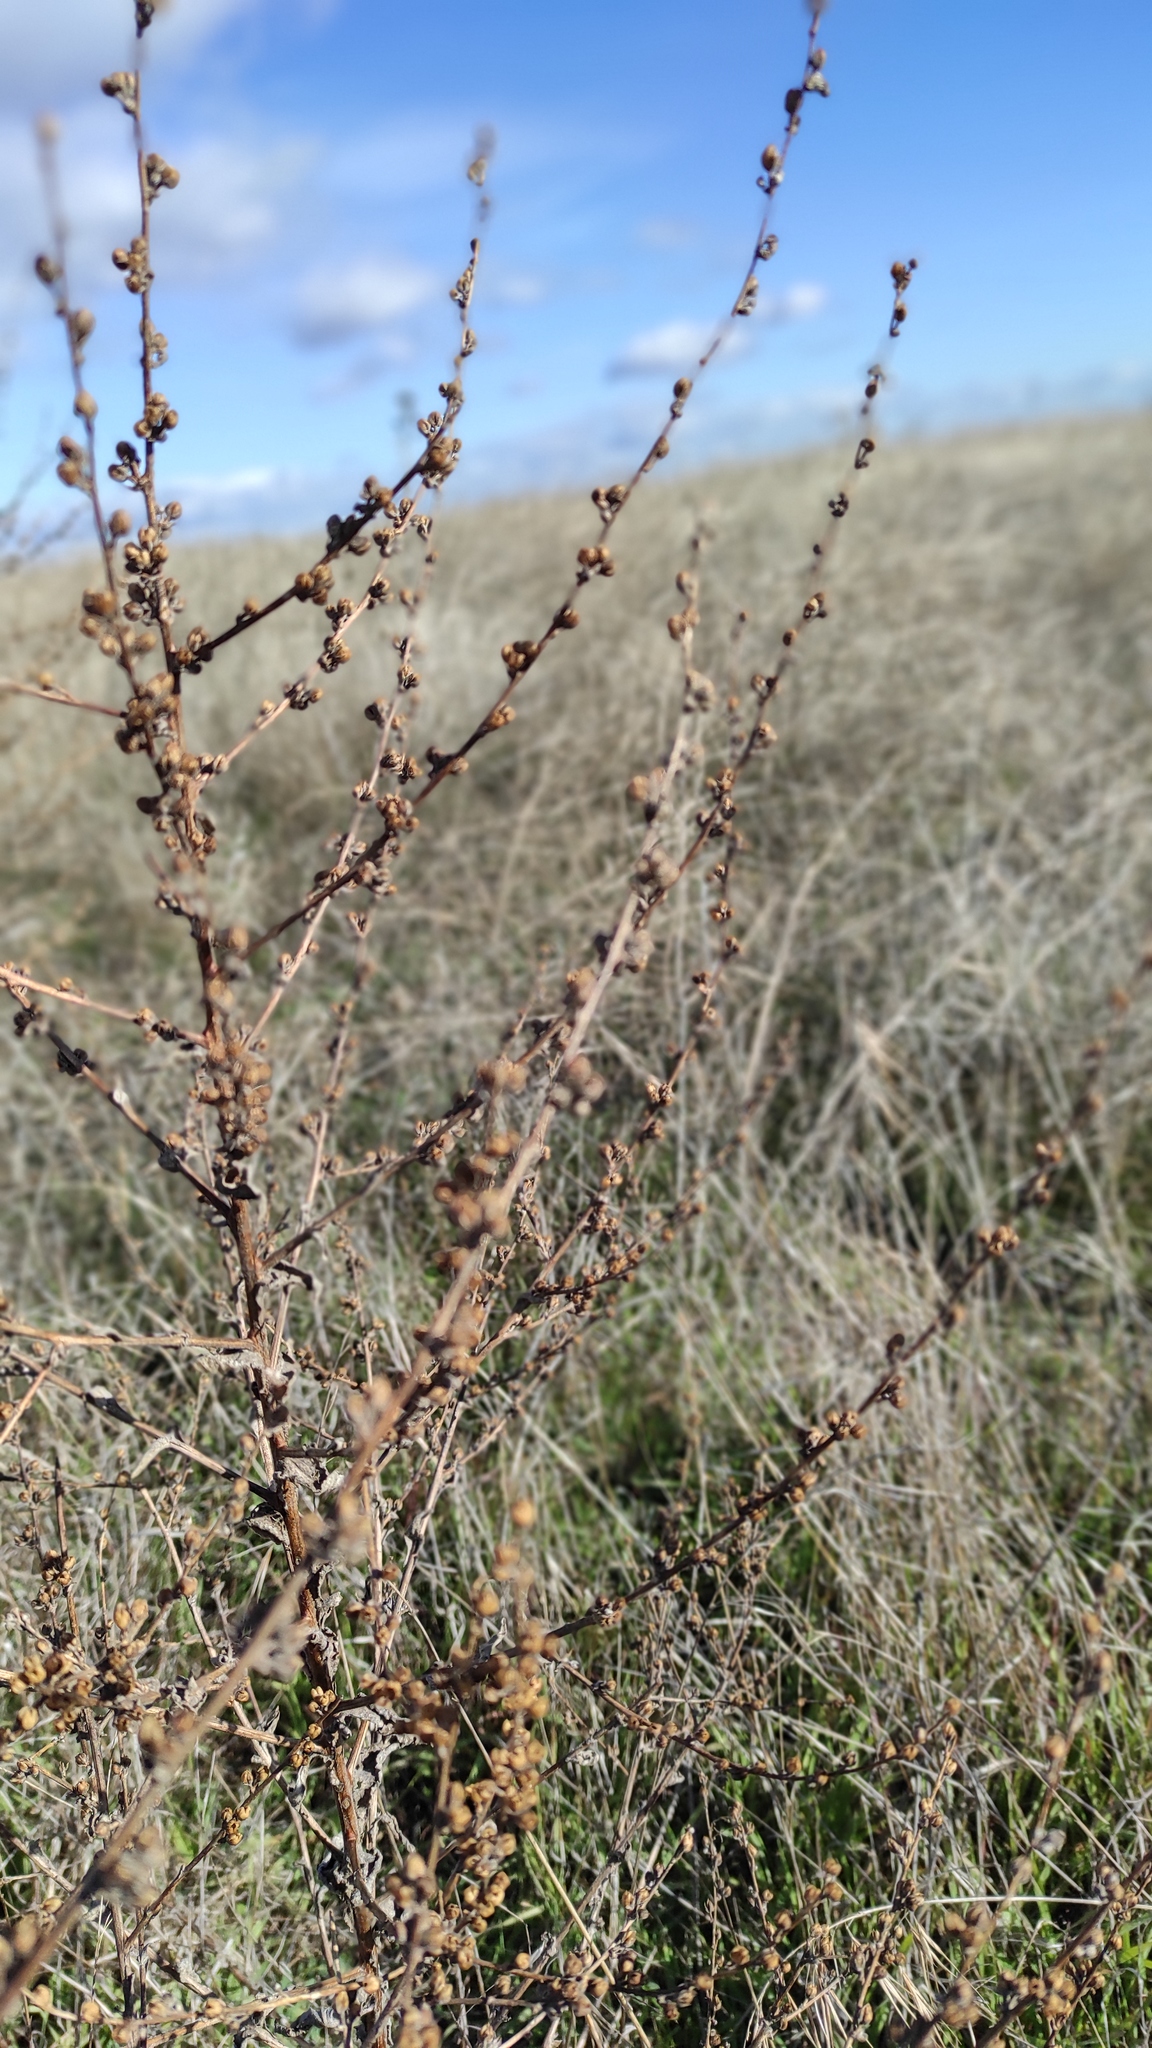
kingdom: Plantae
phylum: Tracheophyta
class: Magnoliopsida
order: Lamiales
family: Scrophulariaceae
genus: Verbascum
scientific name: Verbascum sinuatum
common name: Wavyleaf mullein
